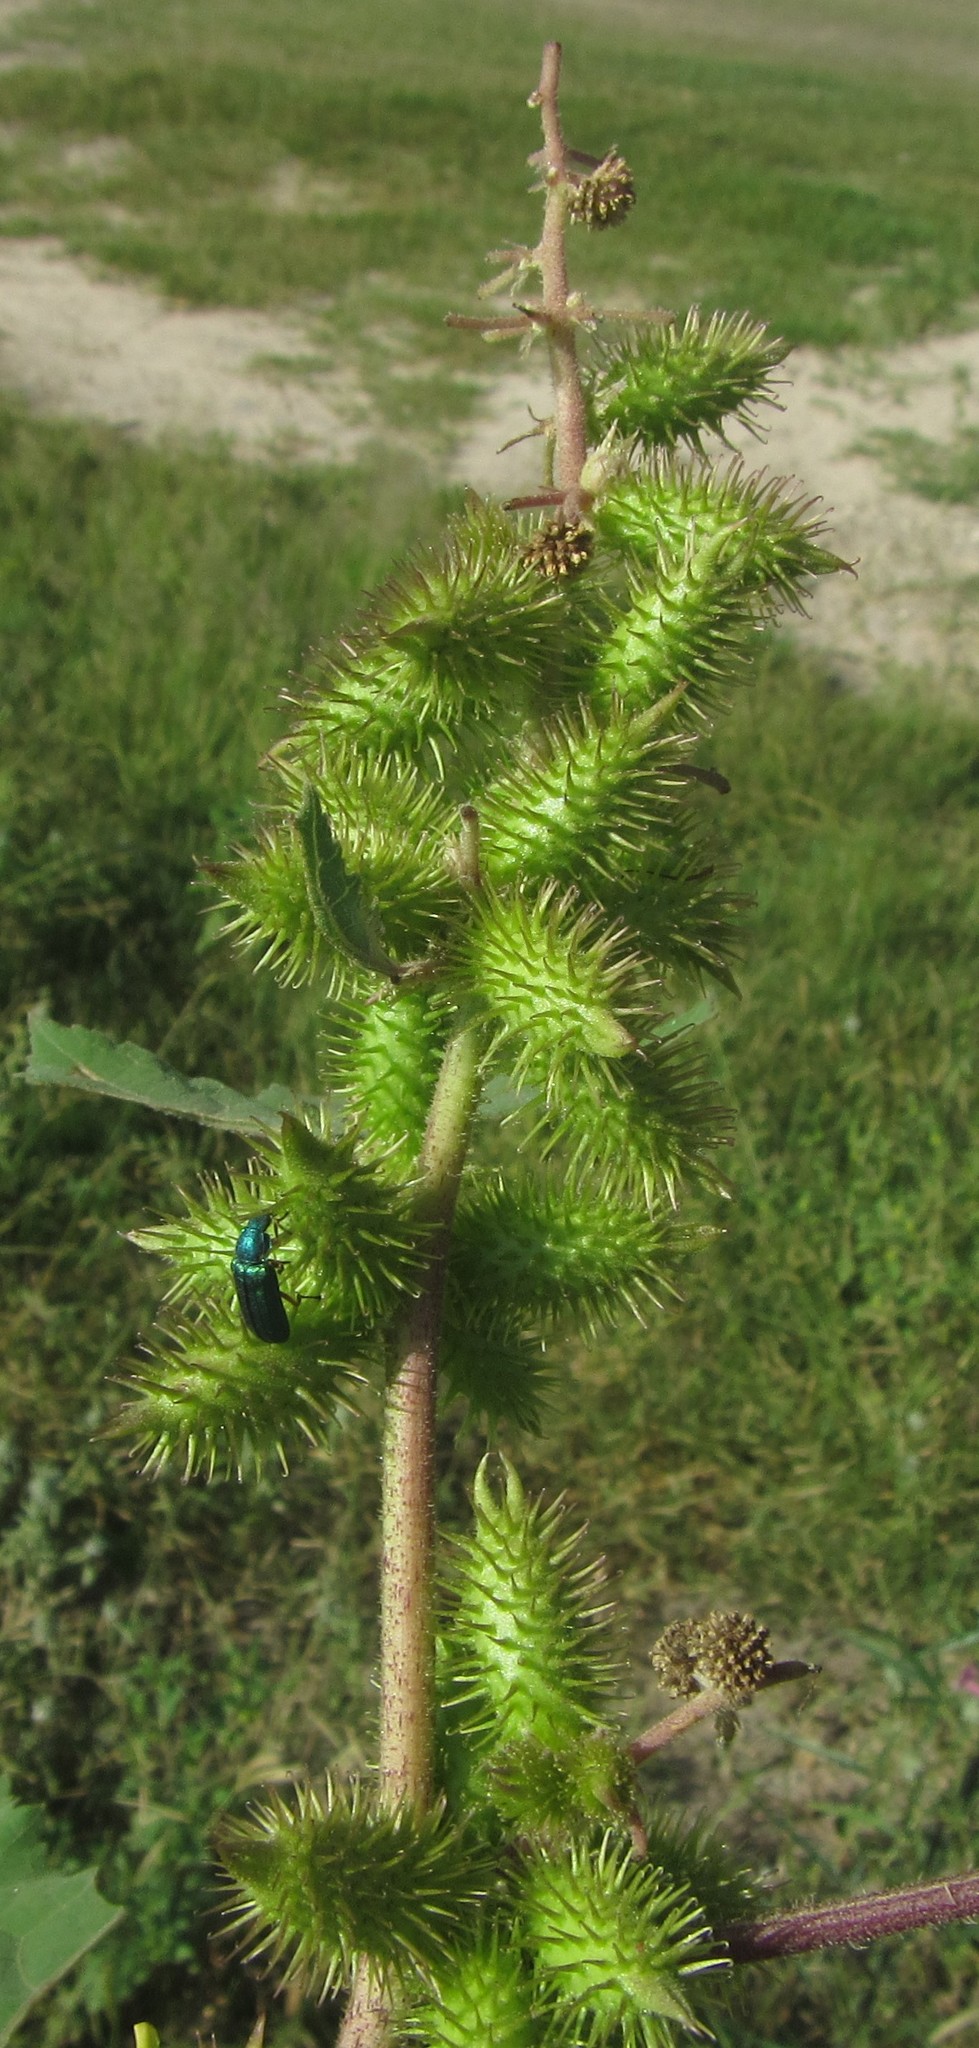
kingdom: Plantae
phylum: Tracheophyta
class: Magnoliopsida
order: Asterales
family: Asteraceae
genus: Xanthium
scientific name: Xanthium strumarium
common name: Rough cocklebur
